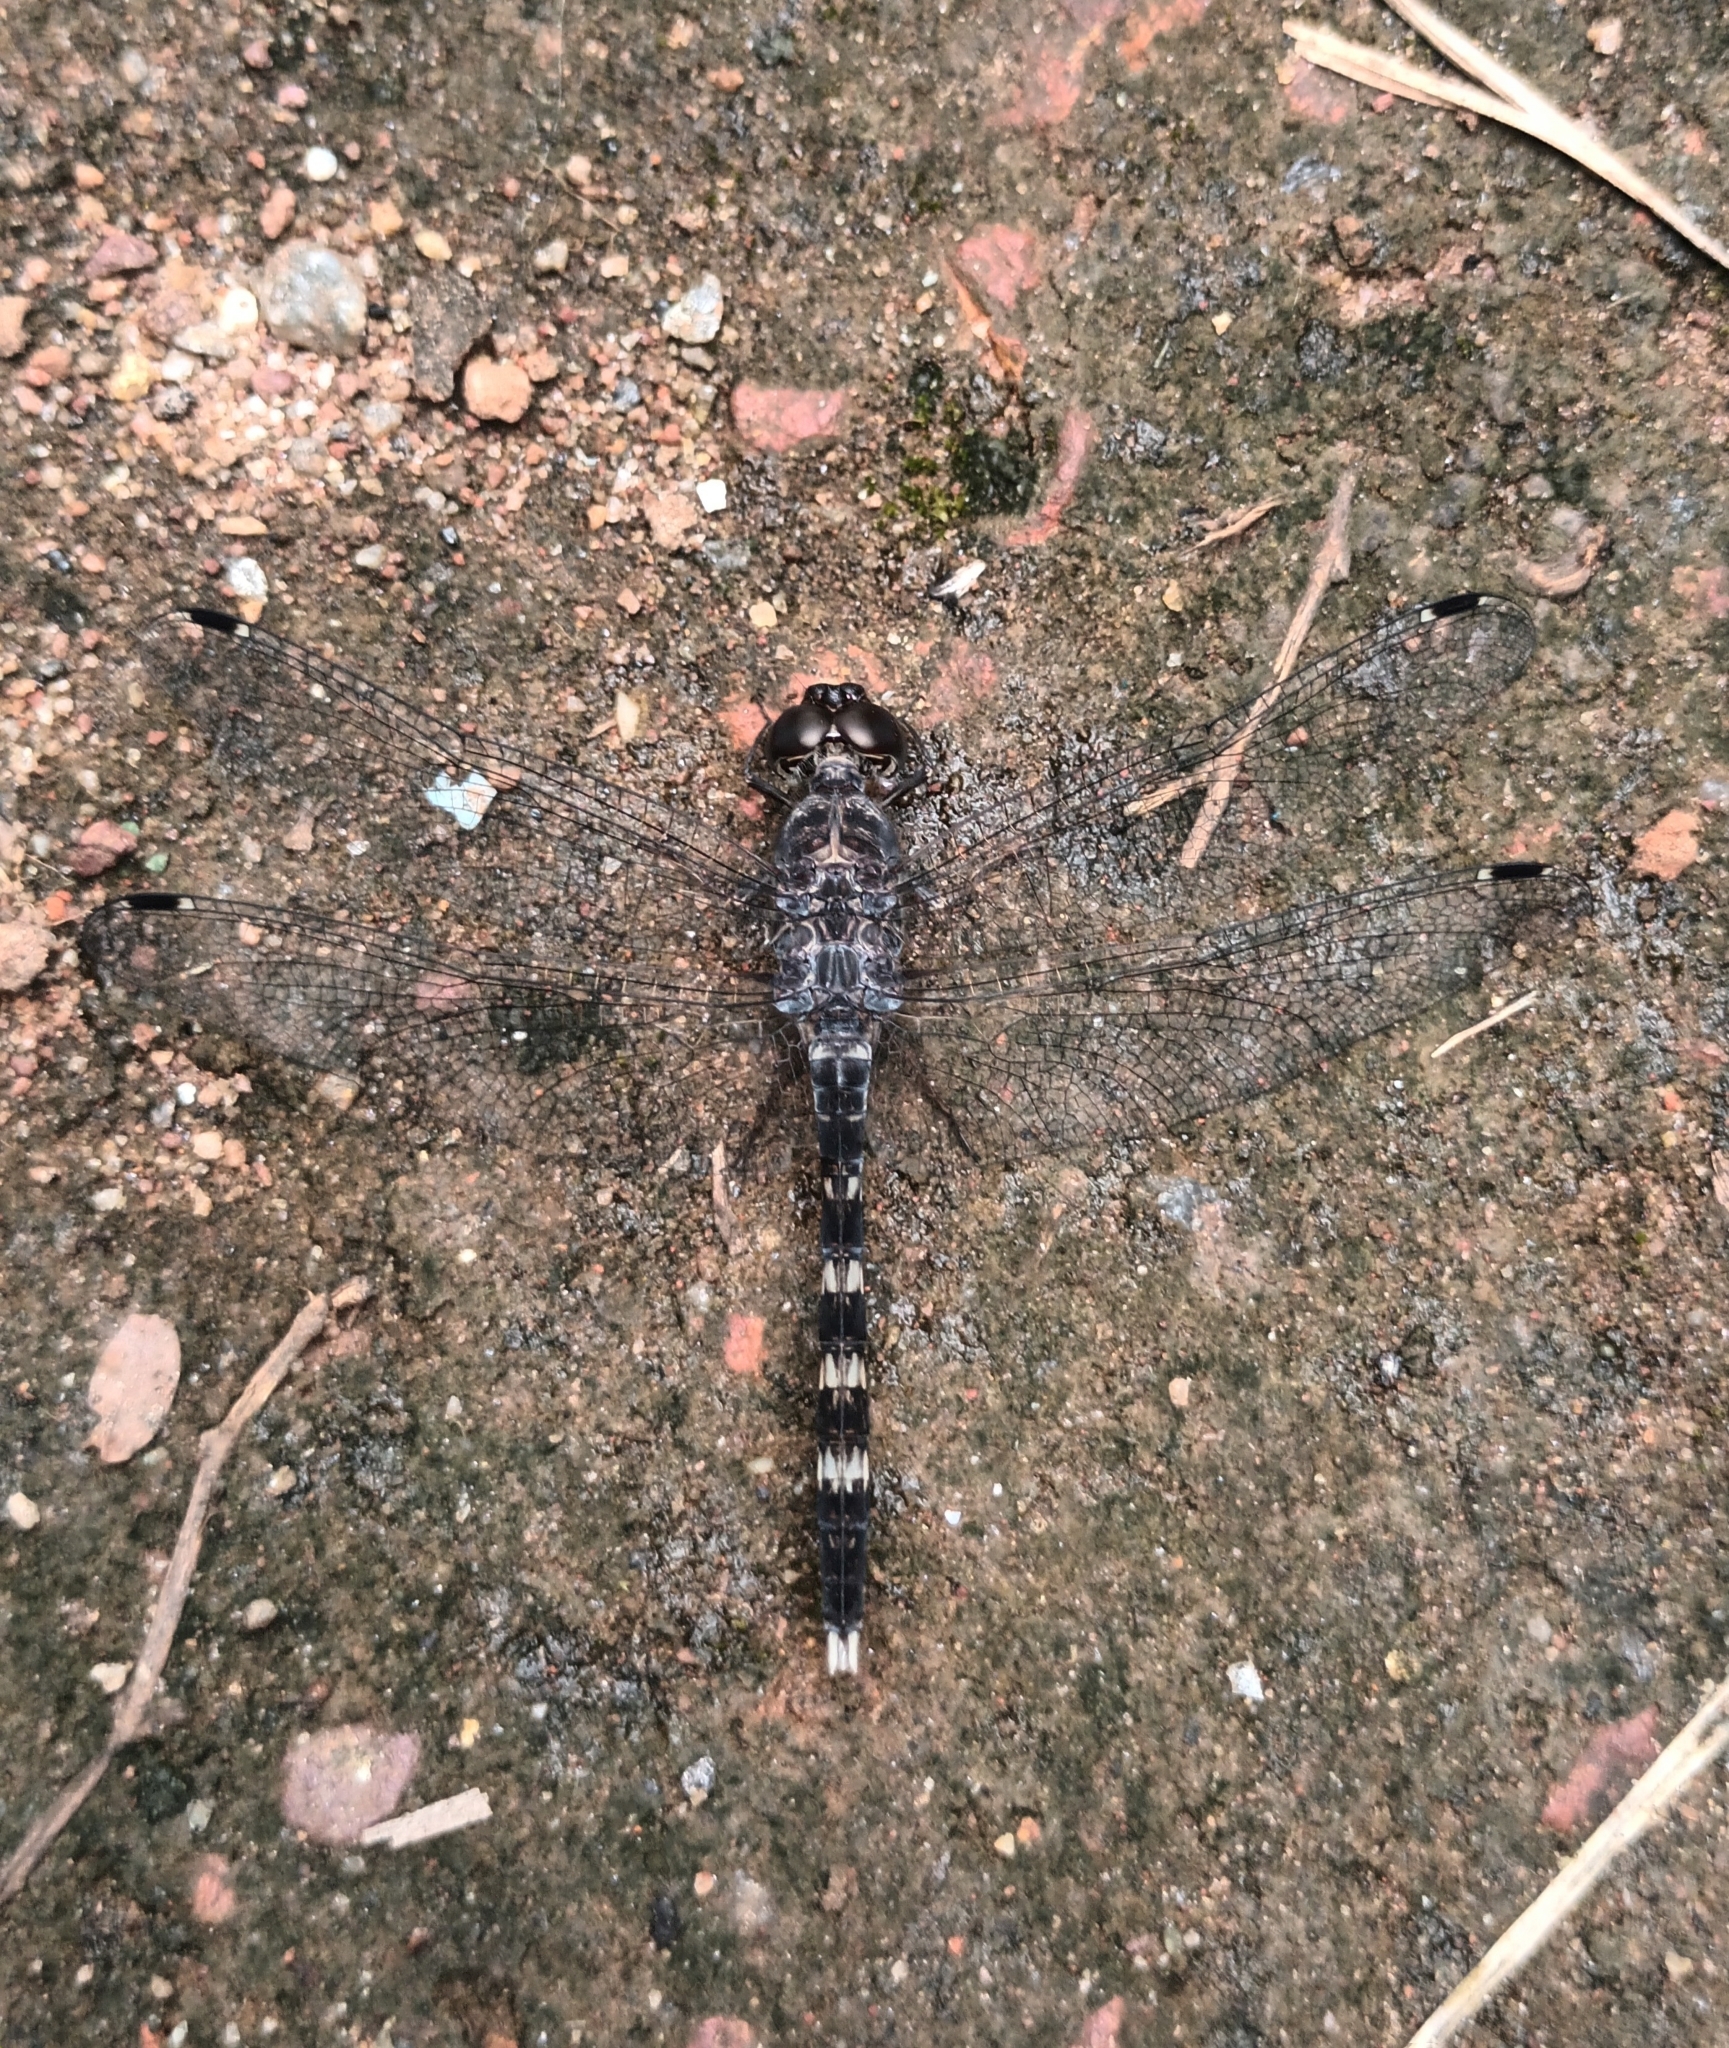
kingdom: Animalia
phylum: Arthropoda
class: Insecta
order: Odonata
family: Libellulidae
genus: Bradinopyga
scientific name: Bradinopyga geminata
